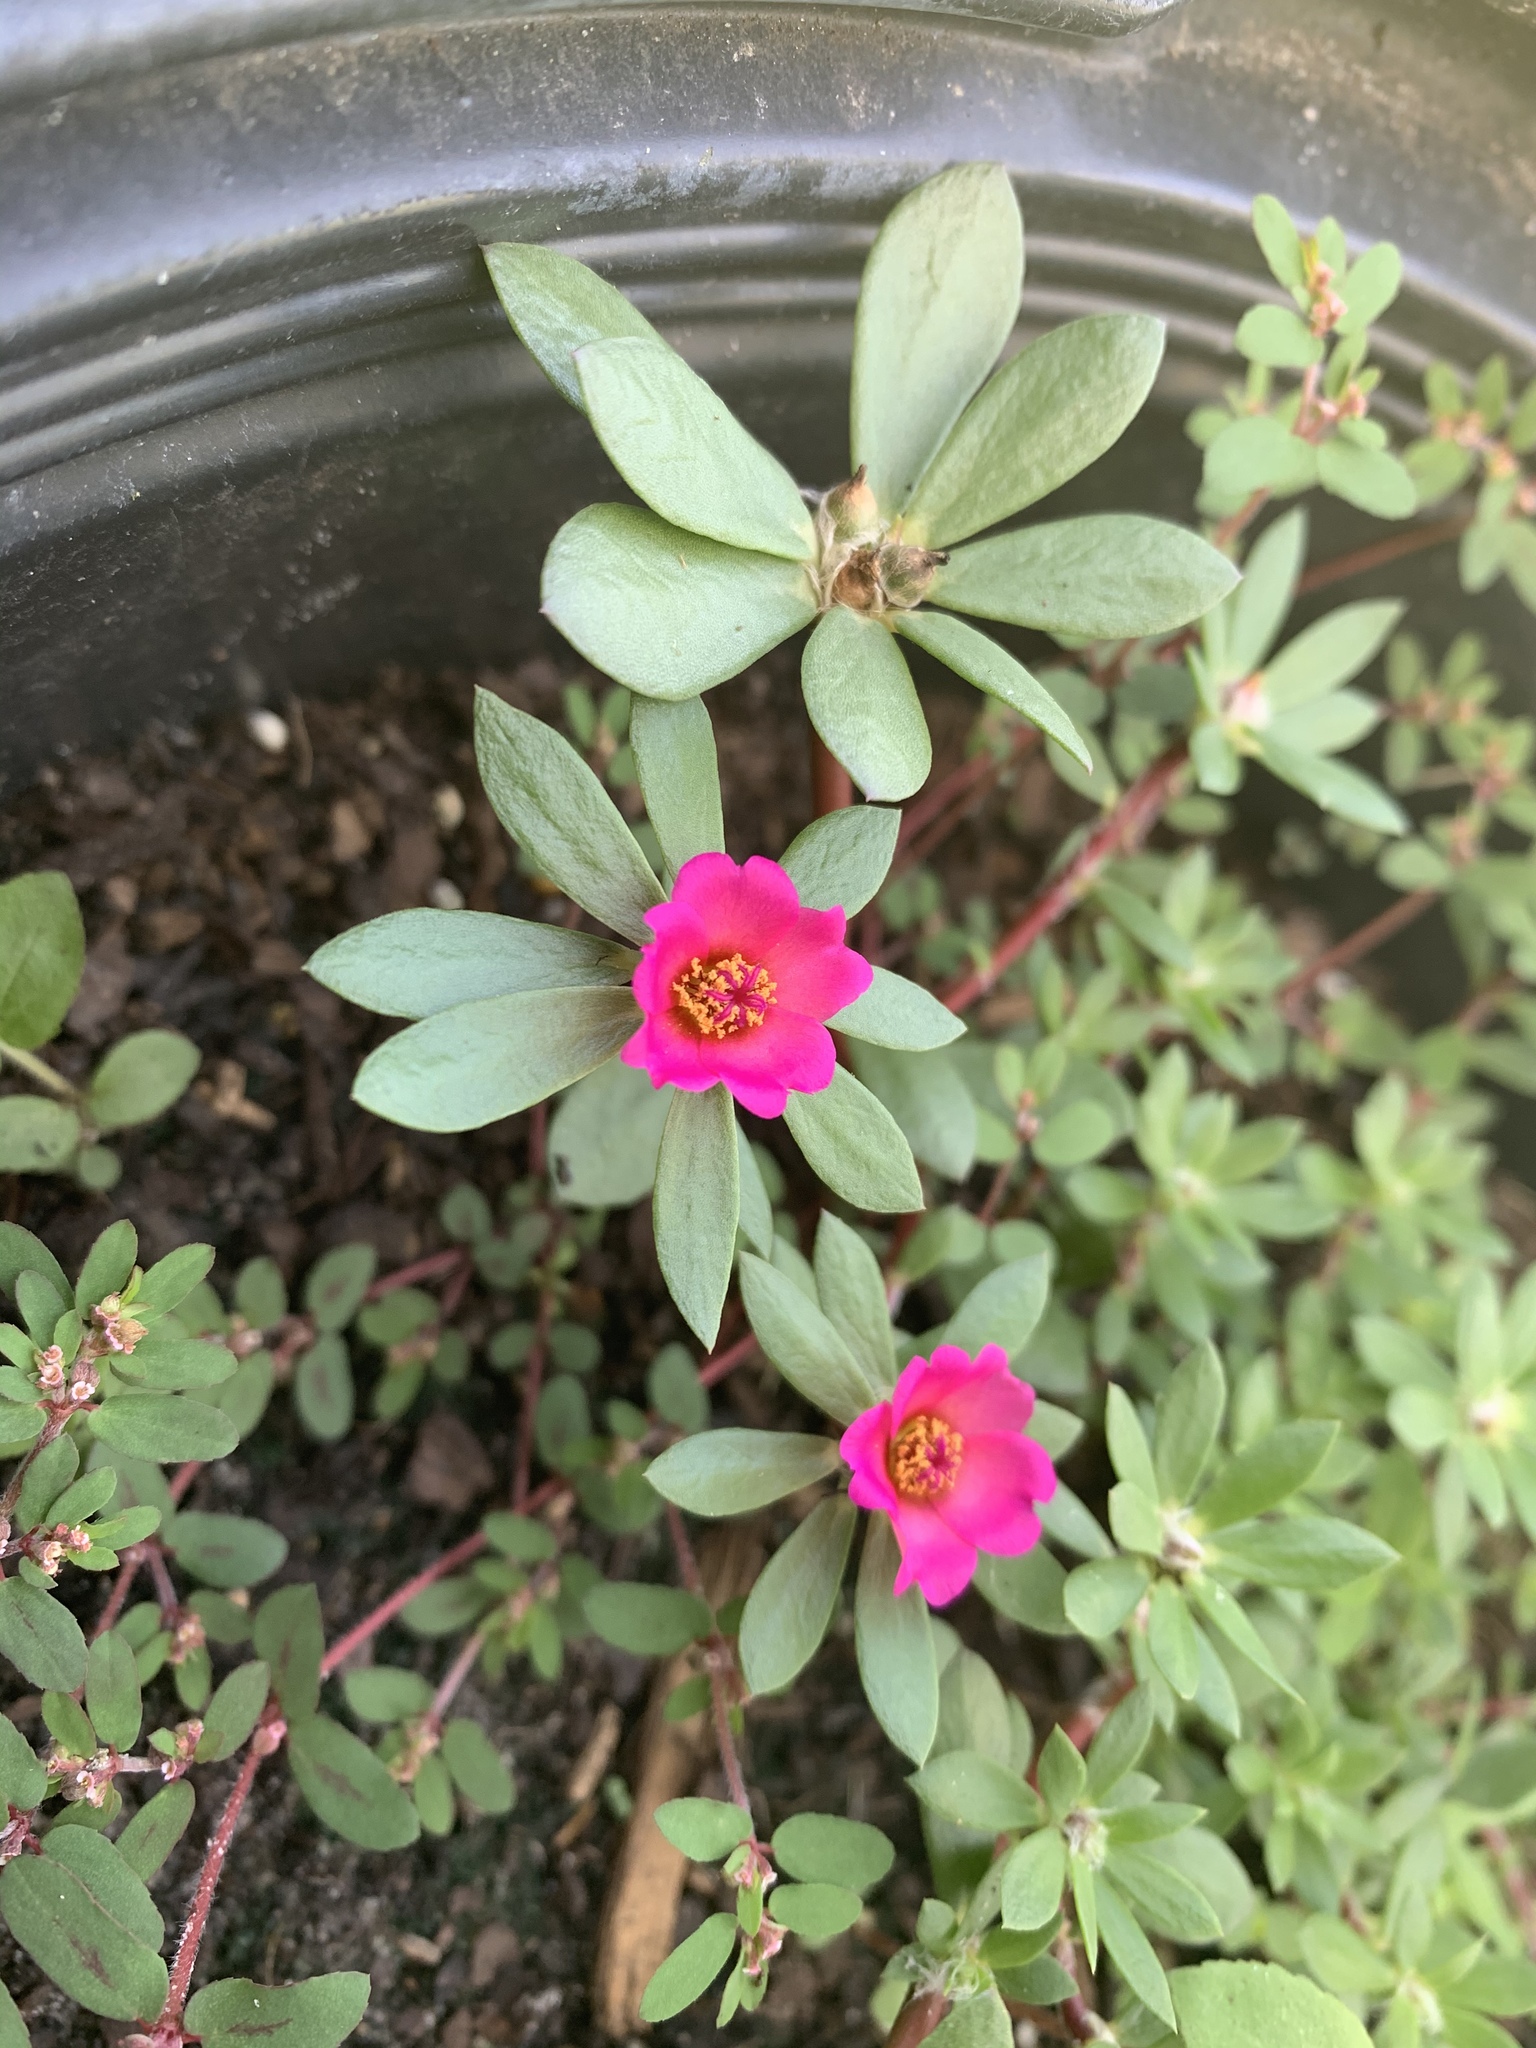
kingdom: Plantae
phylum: Tracheophyta
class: Magnoliopsida
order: Caryophyllales
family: Portulacaceae
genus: Portulaca
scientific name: Portulaca amilis
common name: Paraguayan purslane
